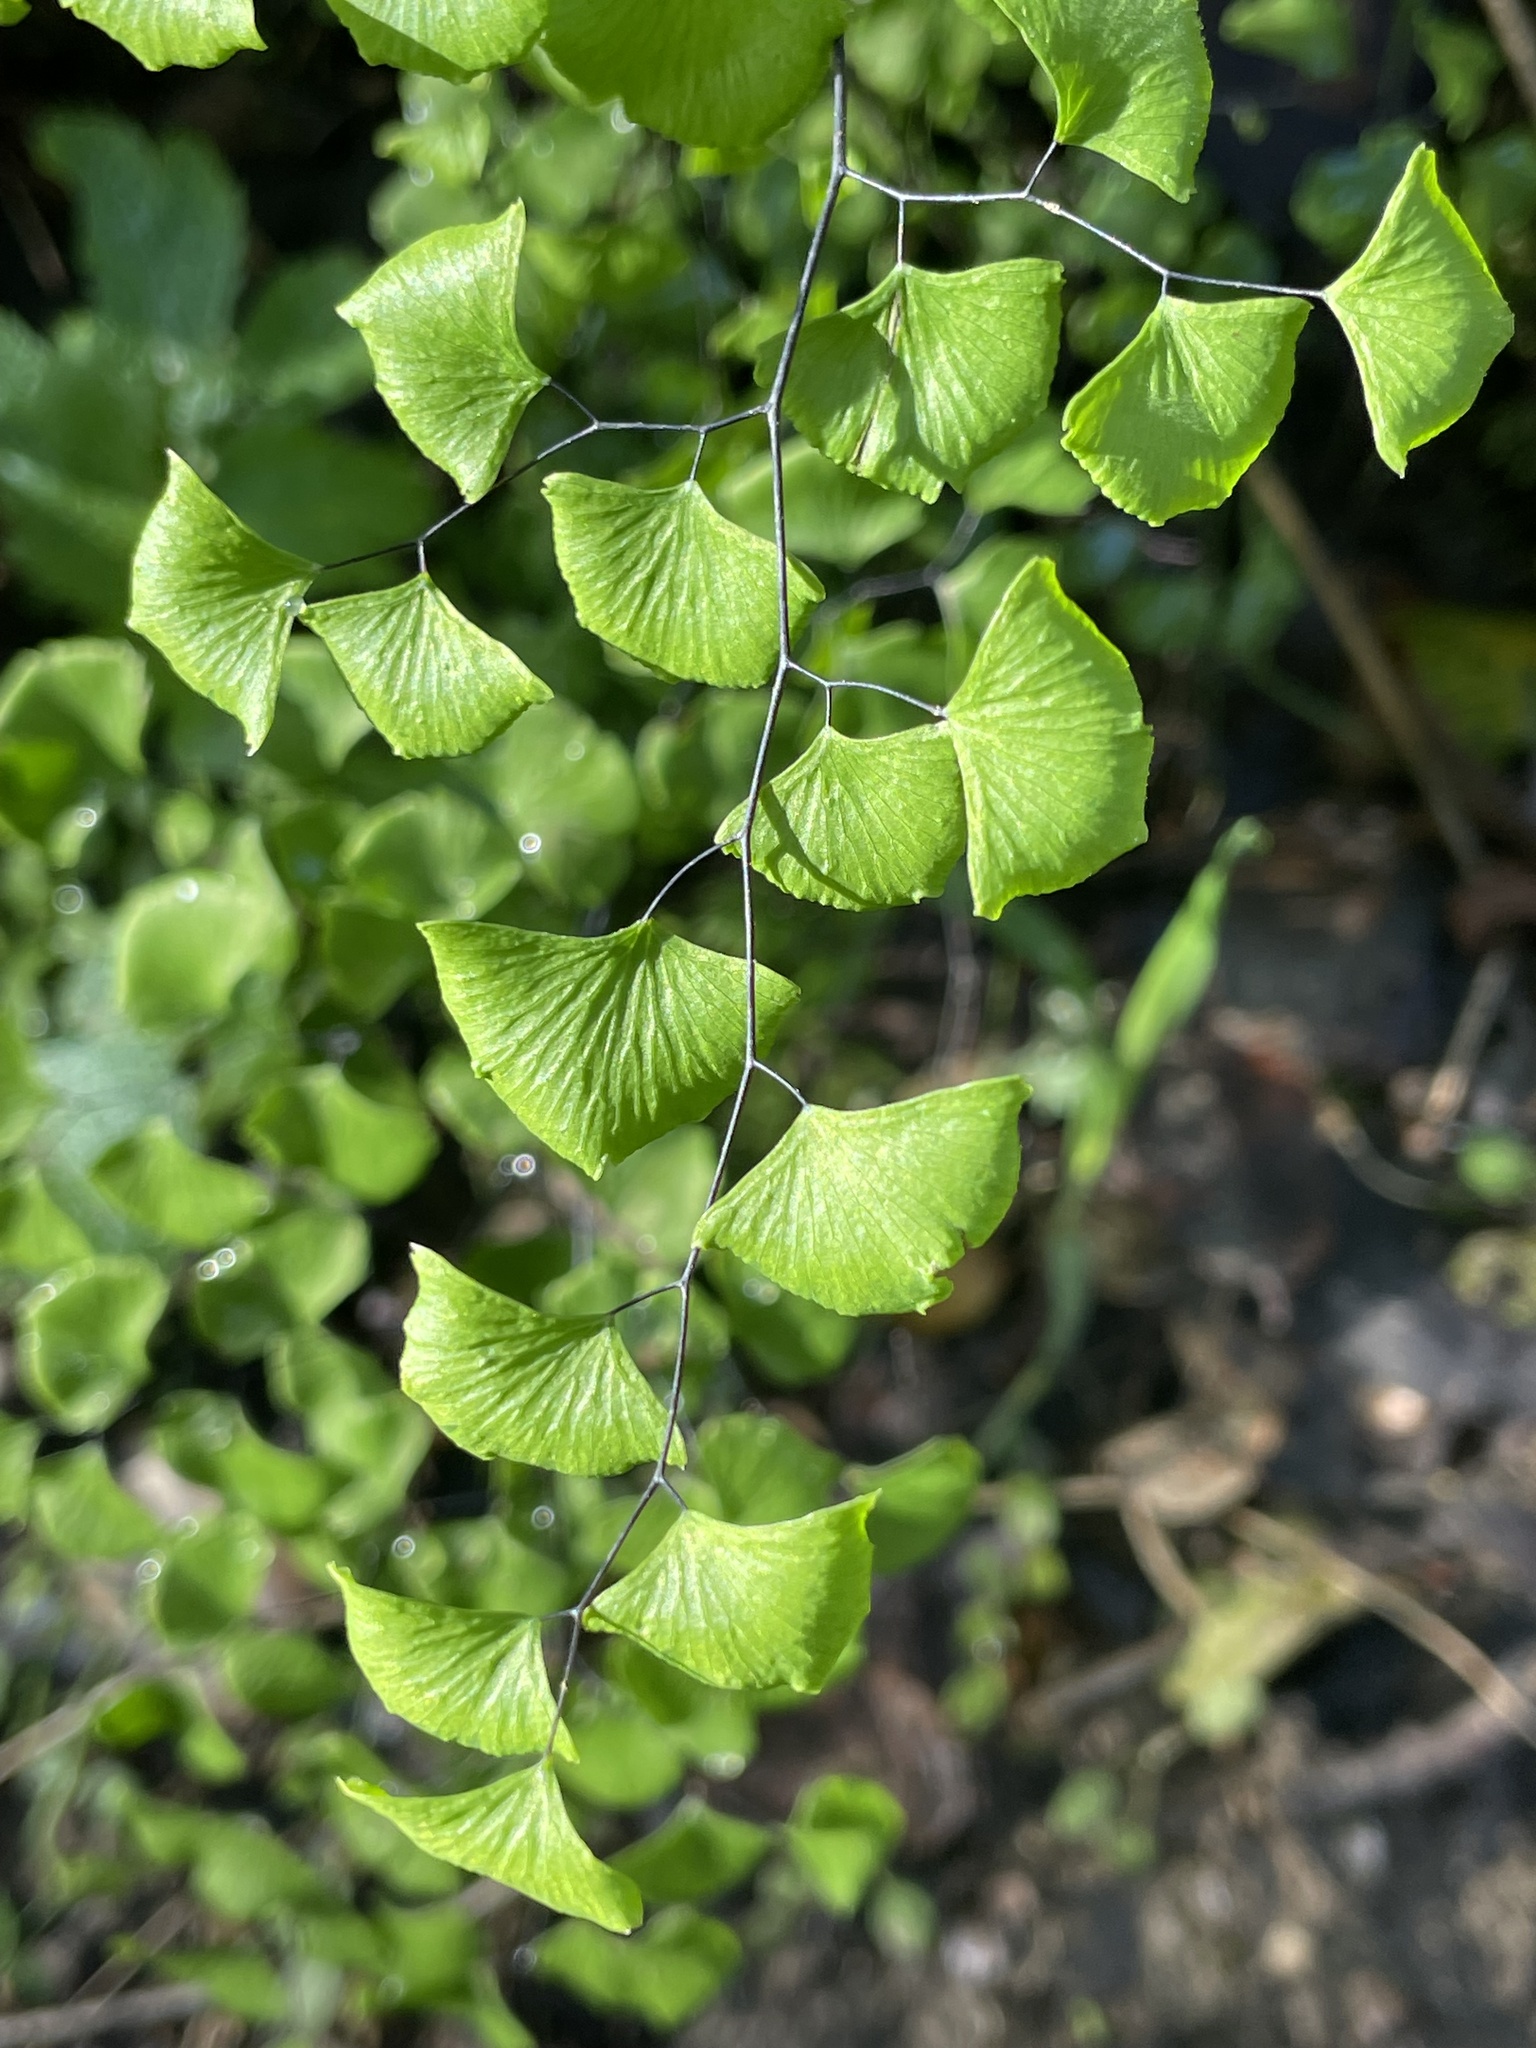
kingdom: Plantae
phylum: Tracheophyta
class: Polypodiopsida
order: Polypodiales
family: Pteridaceae
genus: Adiantum
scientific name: Adiantum jordanii
